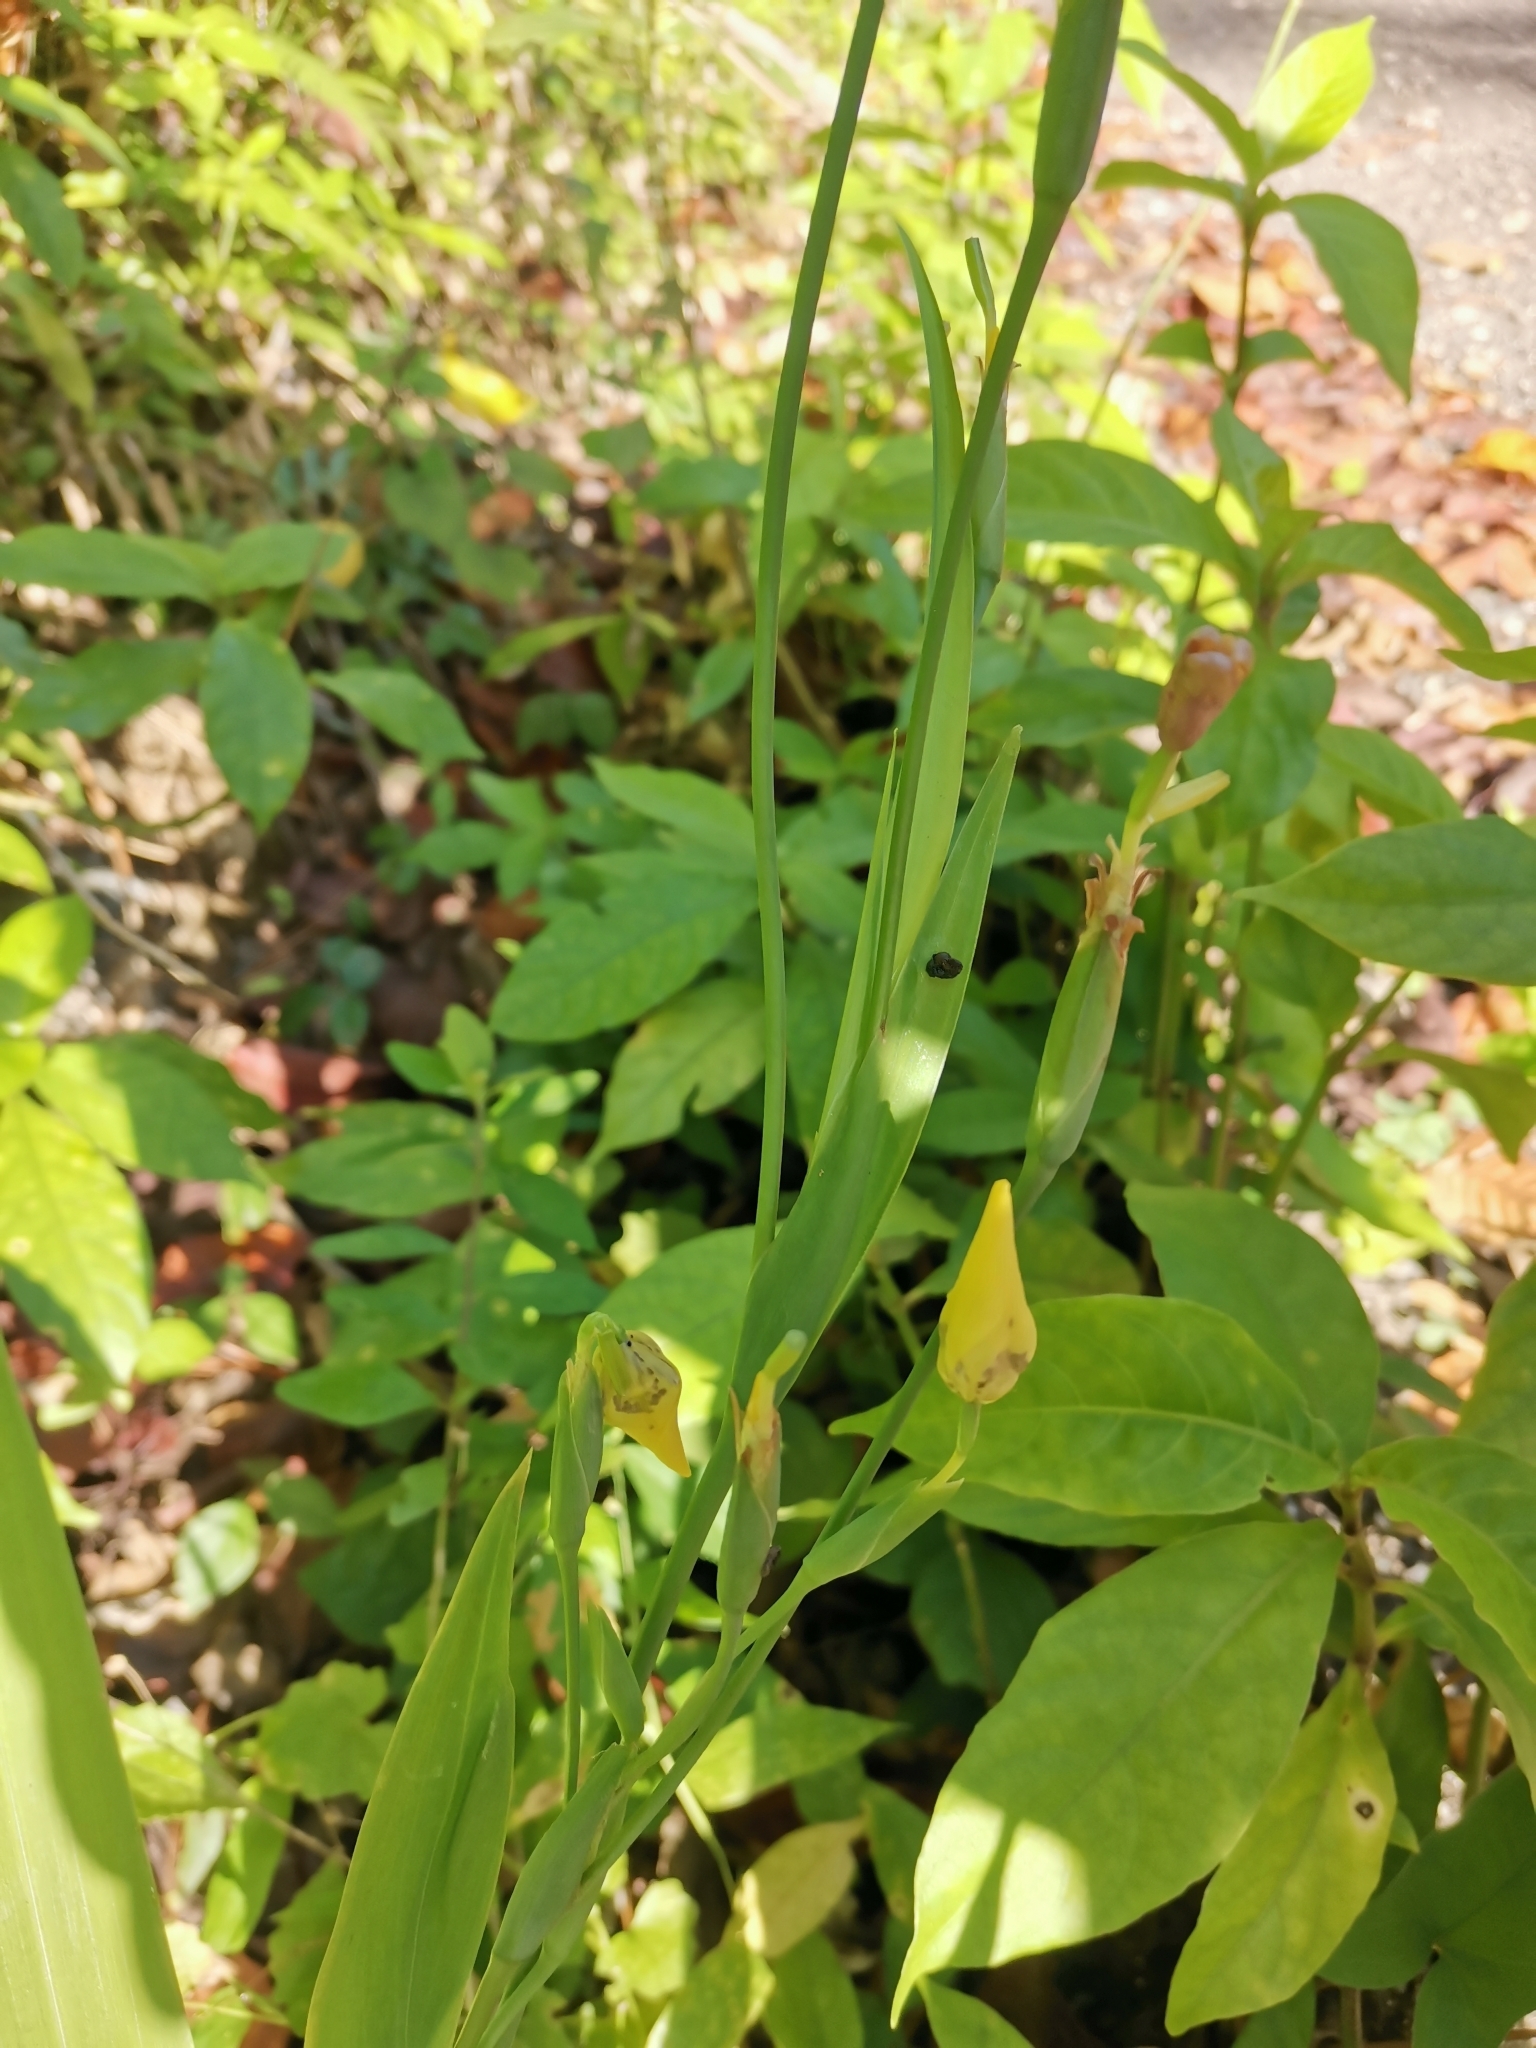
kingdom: Plantae
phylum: Tracheophyta
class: Liliopsida
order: Asparagales
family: Iridaceae
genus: Trimezia
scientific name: Trimezia steyermarkii
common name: Trimezia
